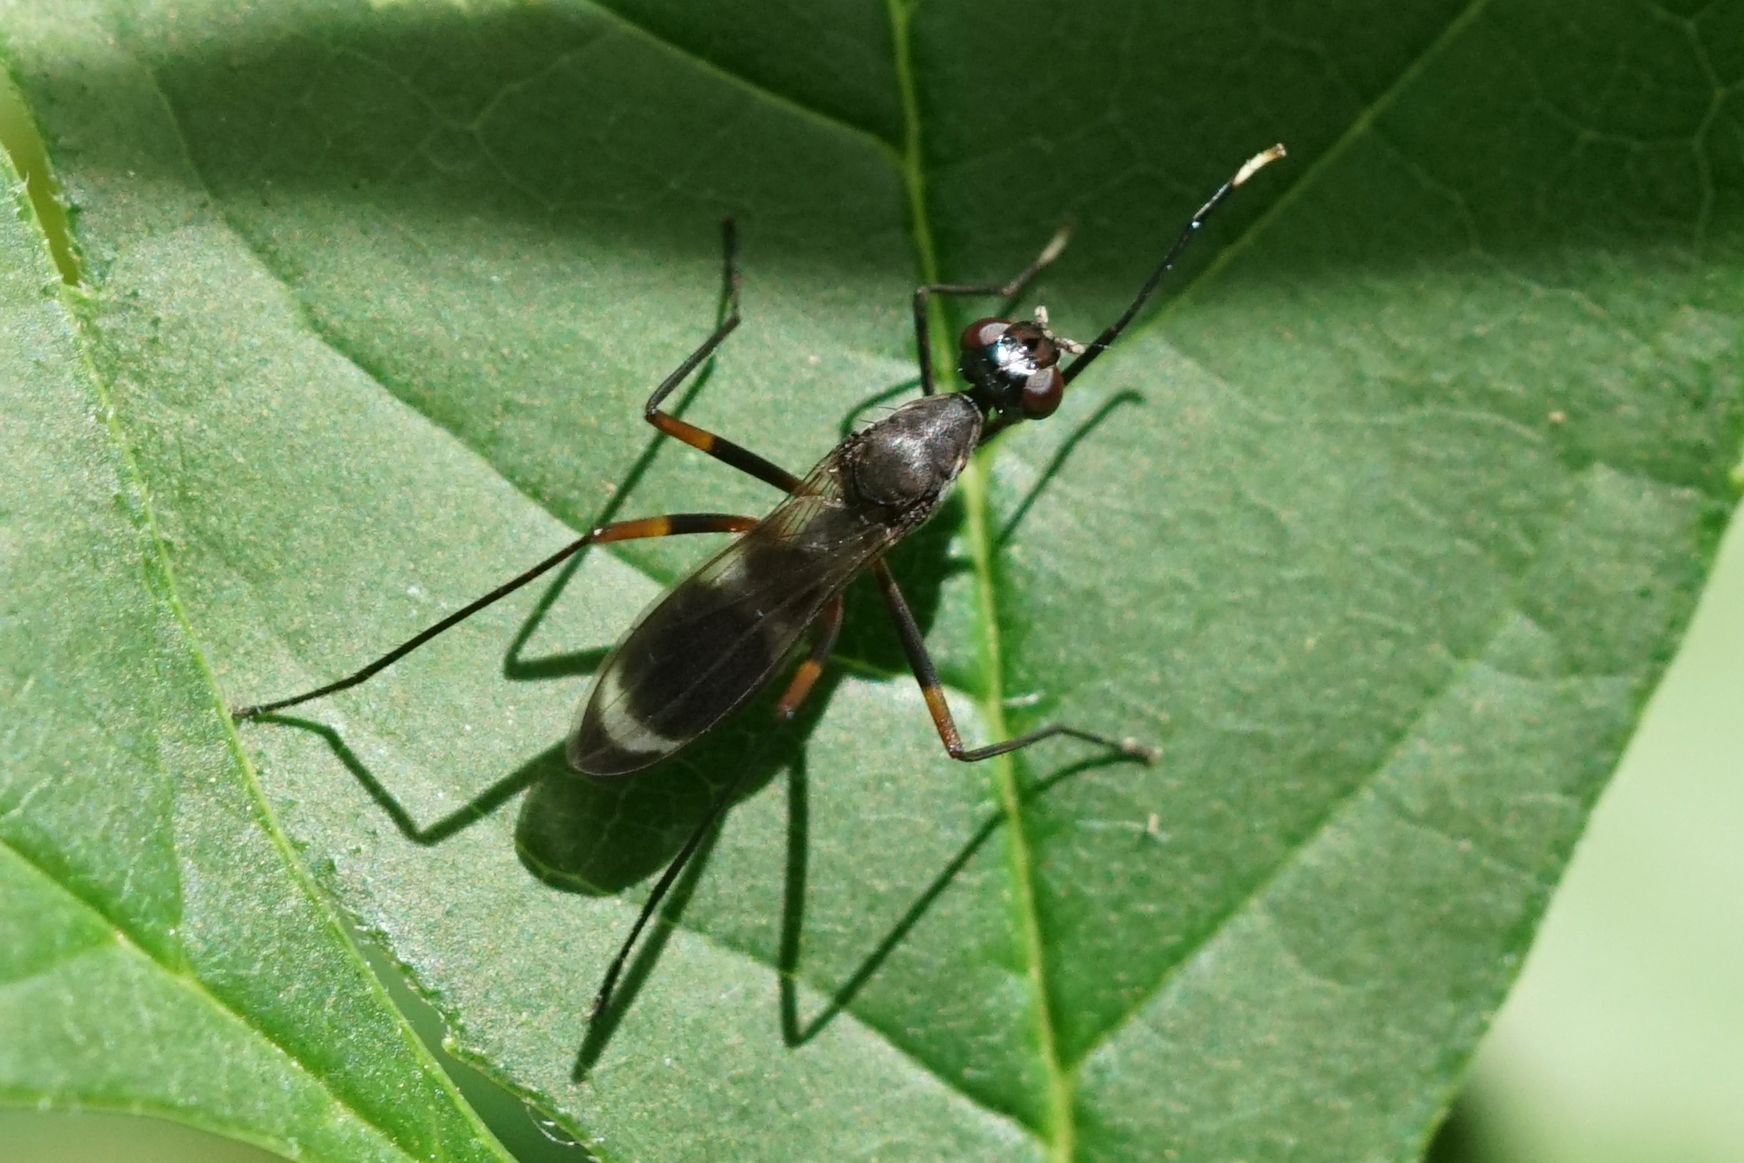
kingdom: Animalia
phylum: Arthropoda
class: Insecta
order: Diptera
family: Micropezidae
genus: Taeniaptera
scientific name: Taeniaptera trivittata
